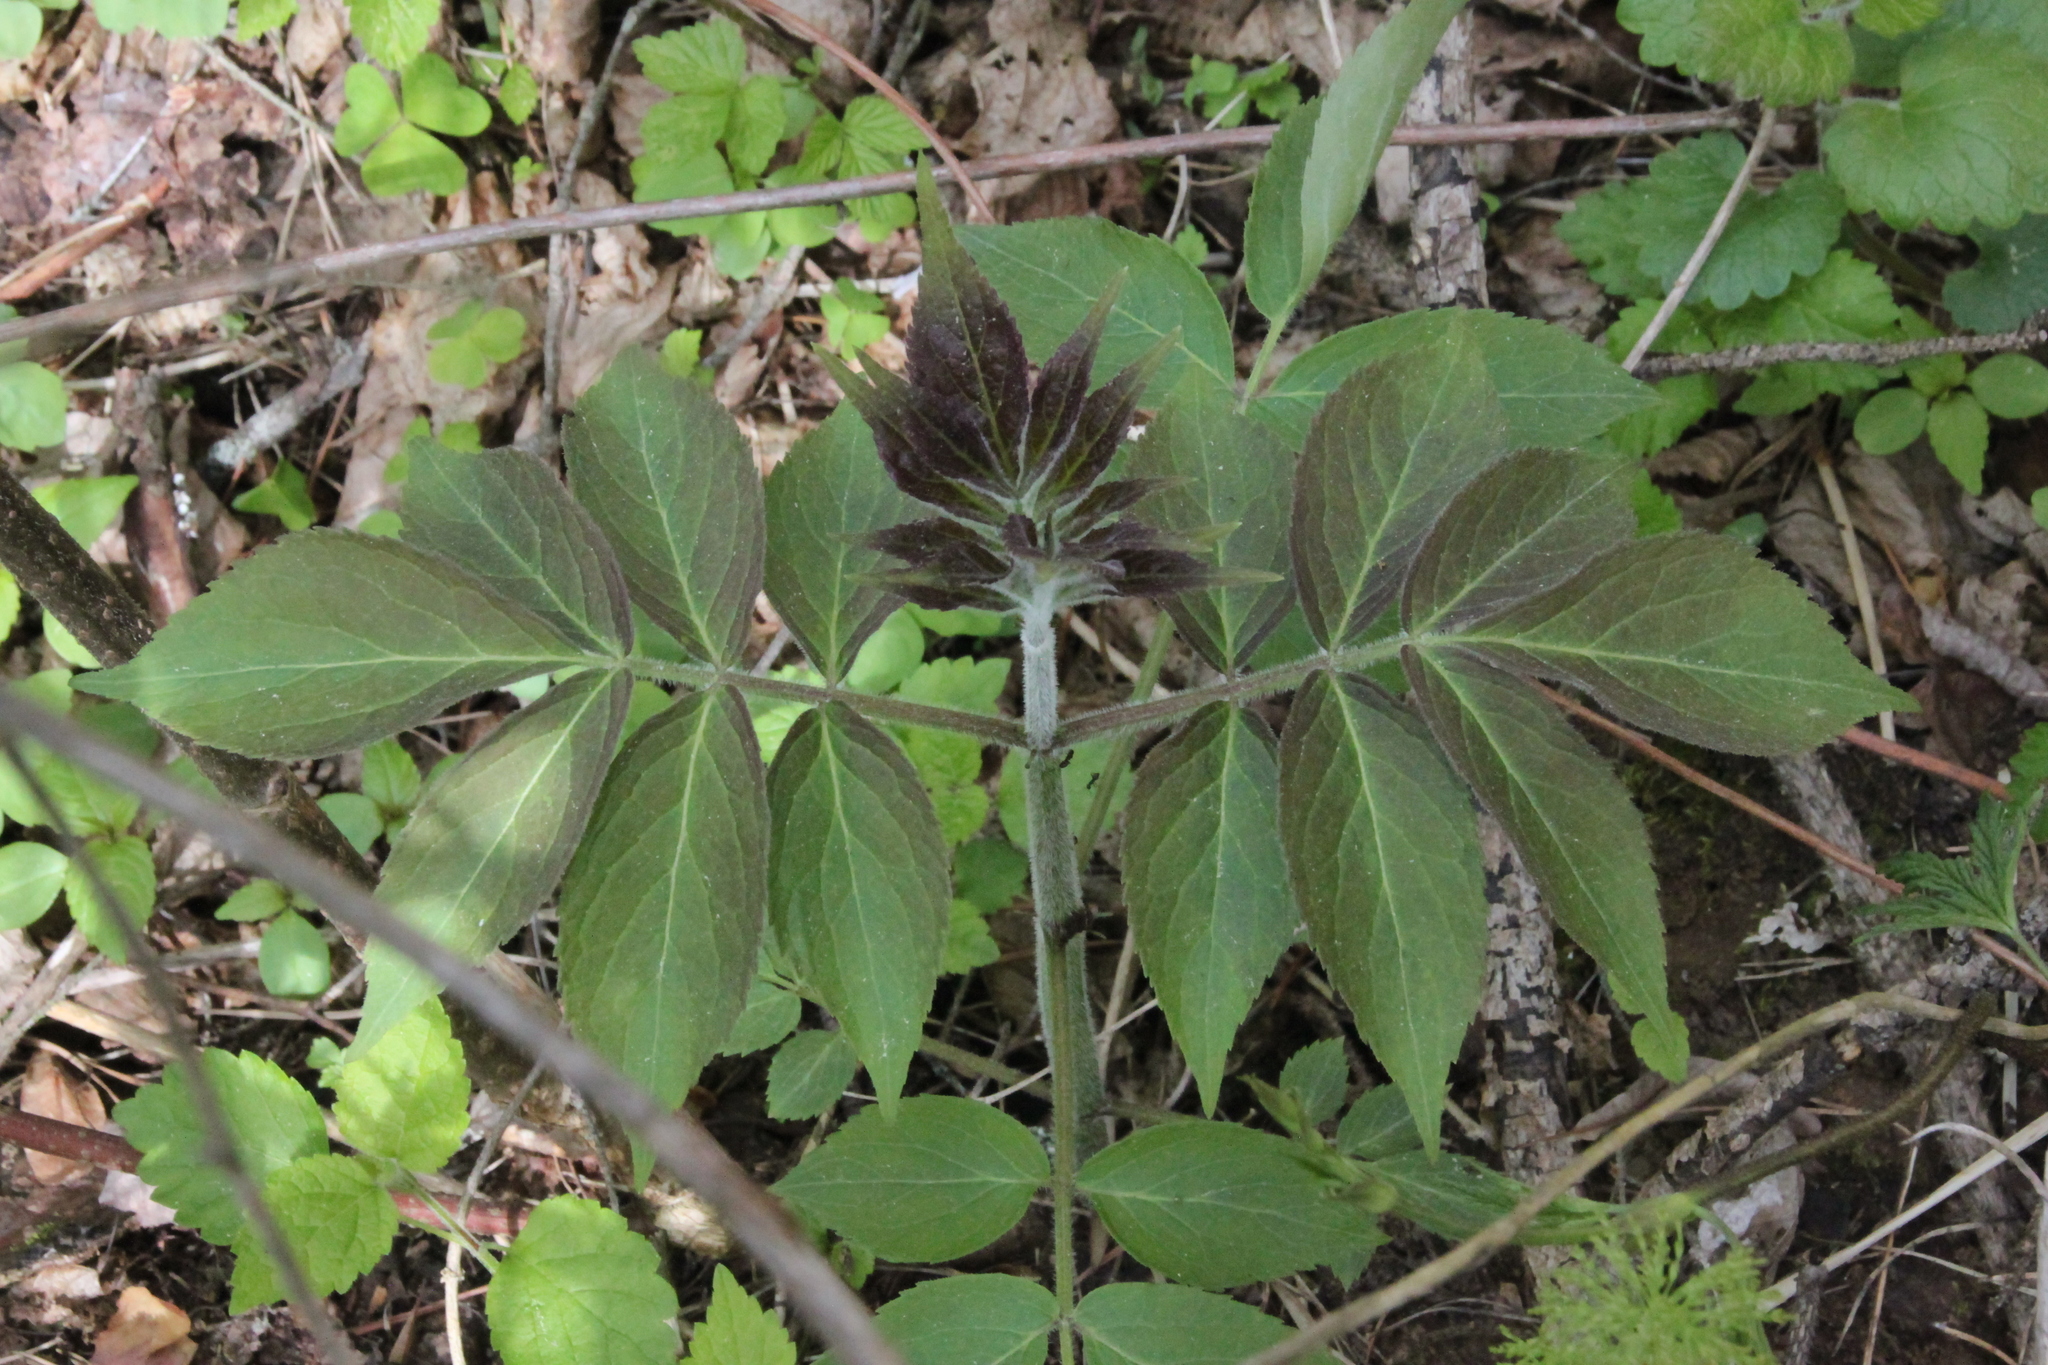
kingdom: Plantae
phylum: Tracheophyta
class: Magnoliopsida
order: Dipsacales
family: Viburnaceae
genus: Sambucus
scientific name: Sambucus racemosa
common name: Red-berried elder
